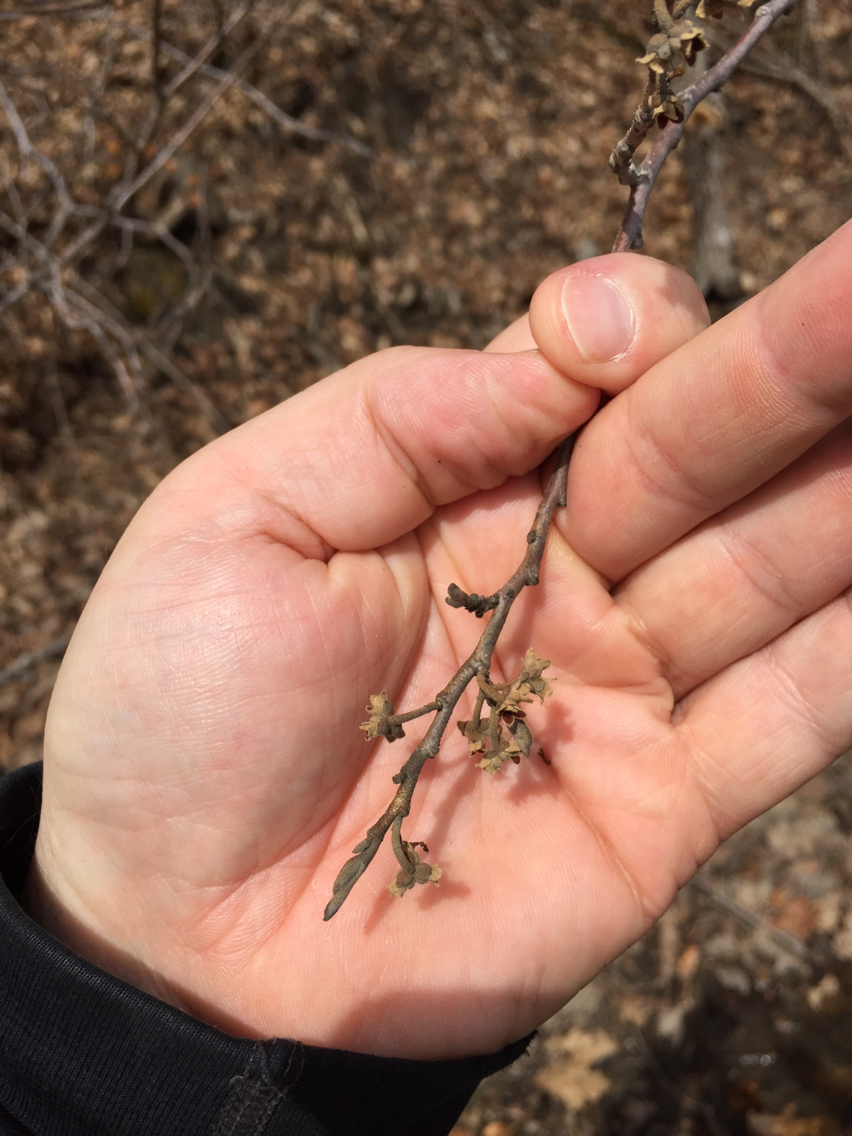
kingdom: Plantae
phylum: Tracheophyta
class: Magnoliopsida
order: Saxifragales
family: Hamamelidaceae
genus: Hamamelis
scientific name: Hamamelis virginiana
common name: Witch-hazel
